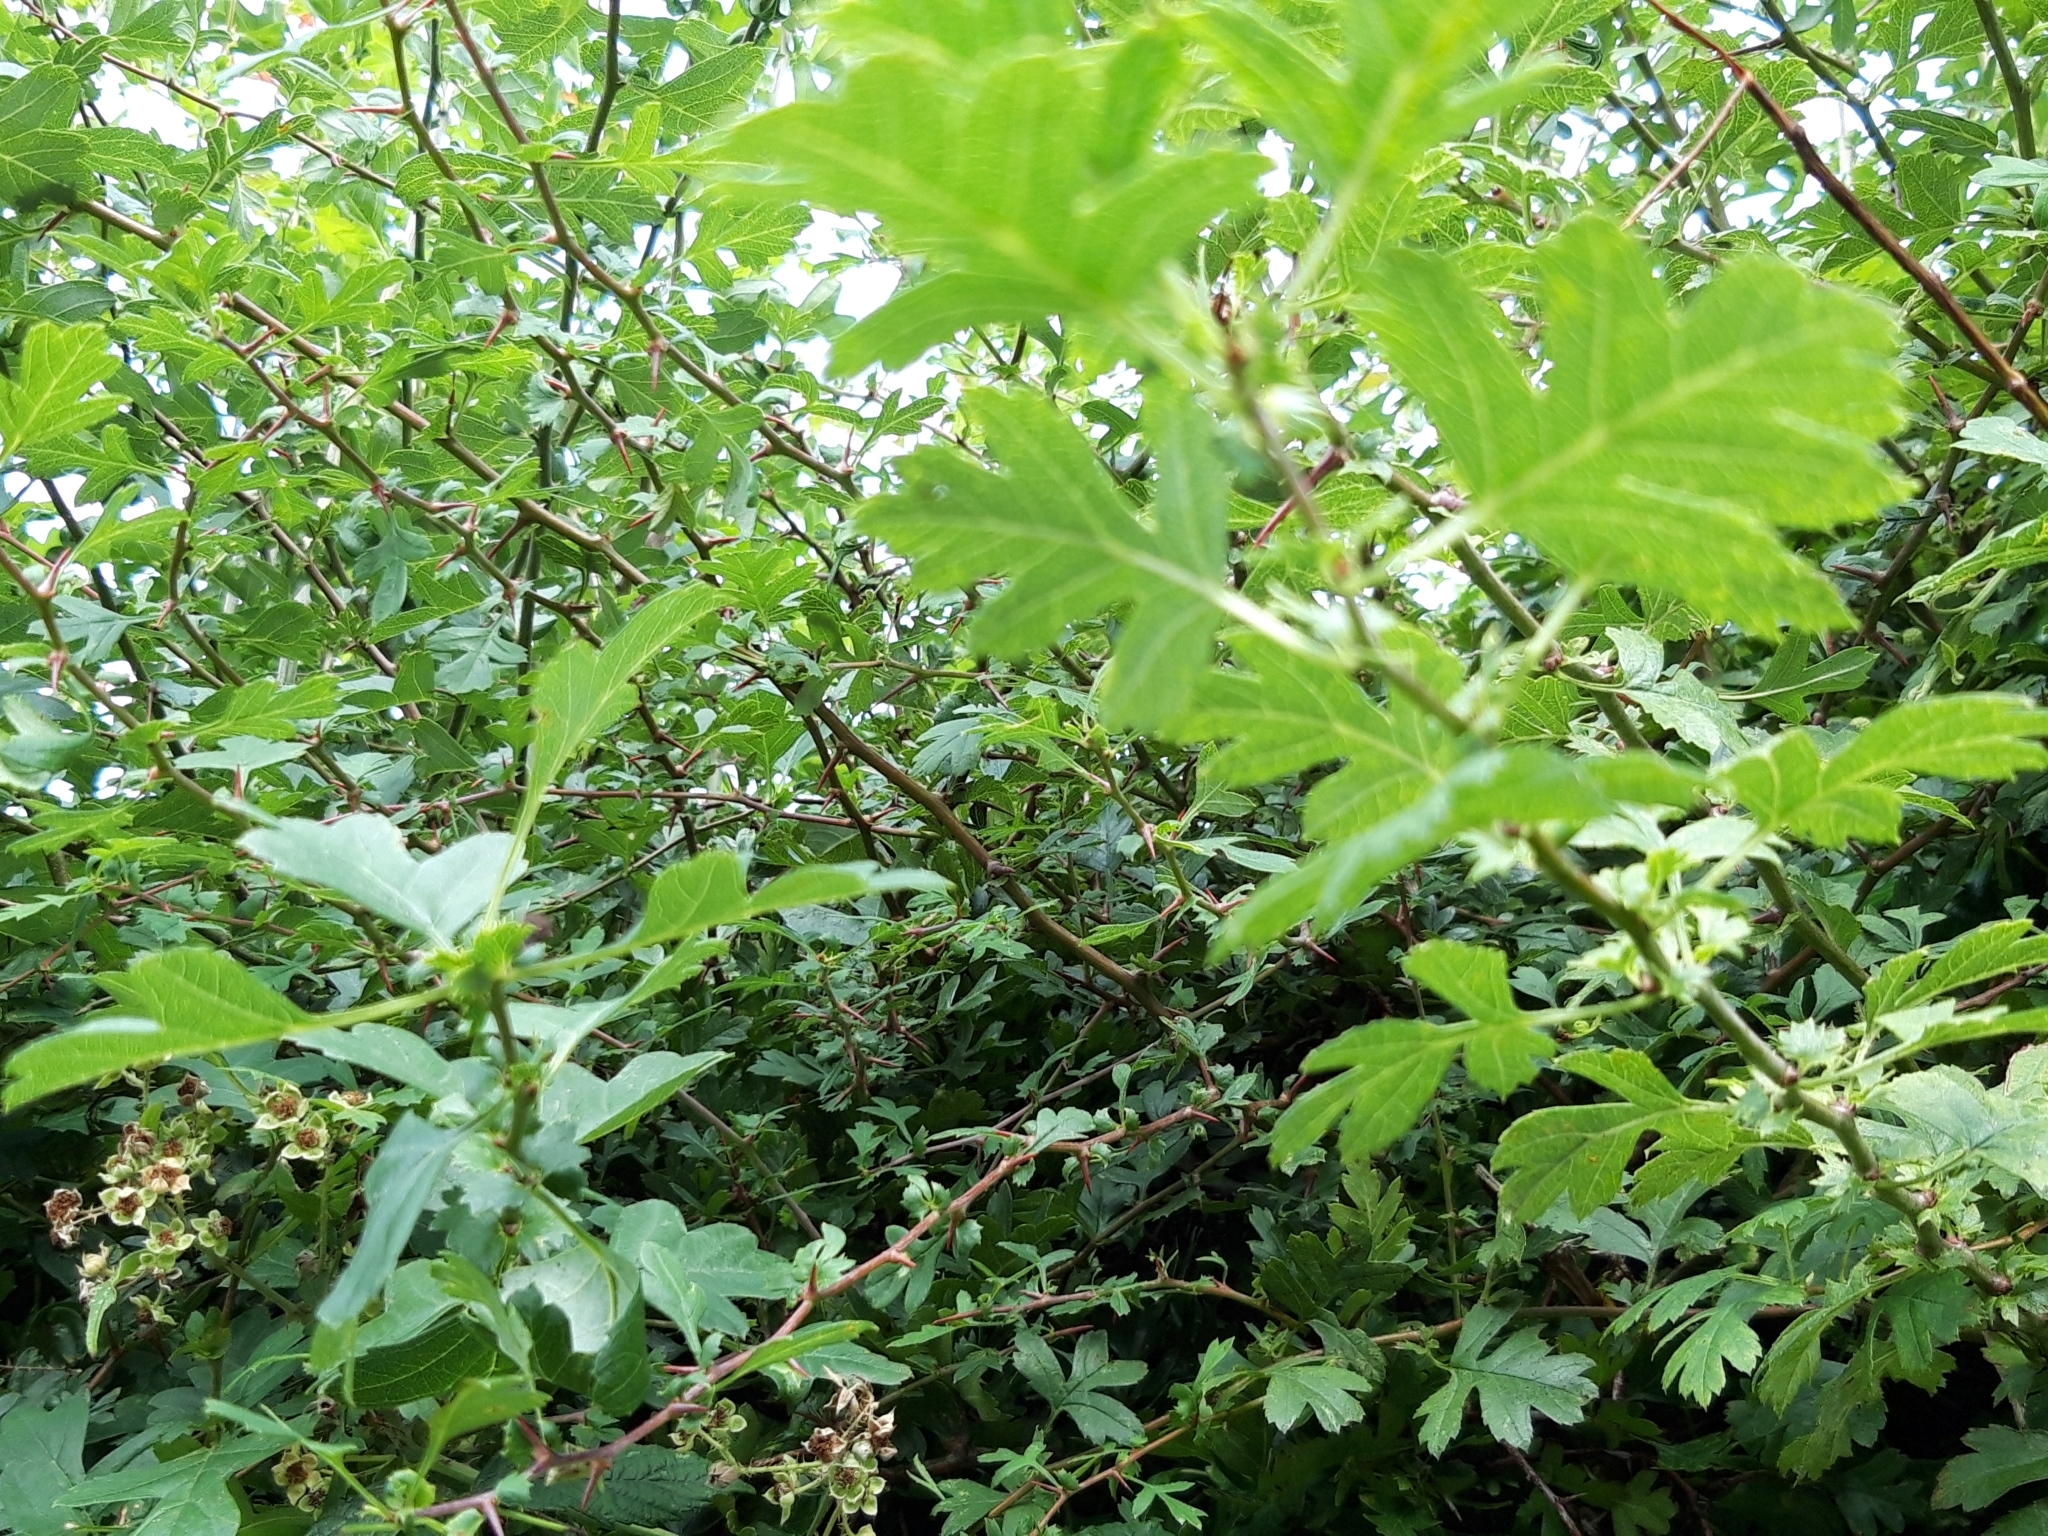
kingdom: Plantae
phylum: Tracheophyta
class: Magnoliopsida
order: Rosales
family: Rosaceae
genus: Crataegus
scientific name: Crataegus monogyna
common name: Hawthorn
